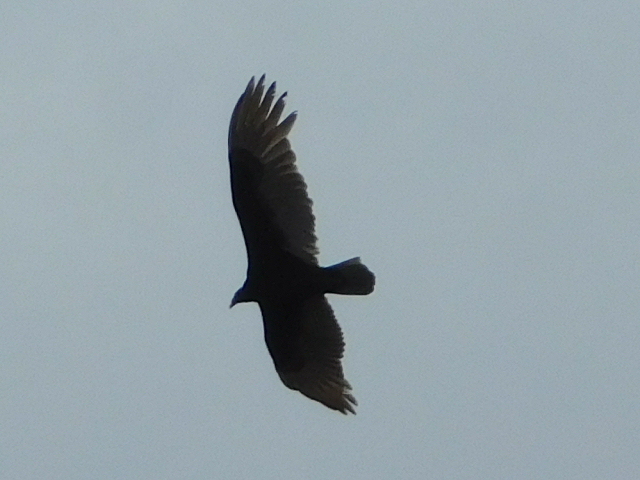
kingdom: Animalia
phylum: Chordata
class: Aves
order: Accipitriformes
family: Cathartidae
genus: Cathartes
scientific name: Cathartes aura
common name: Turkey vulture
